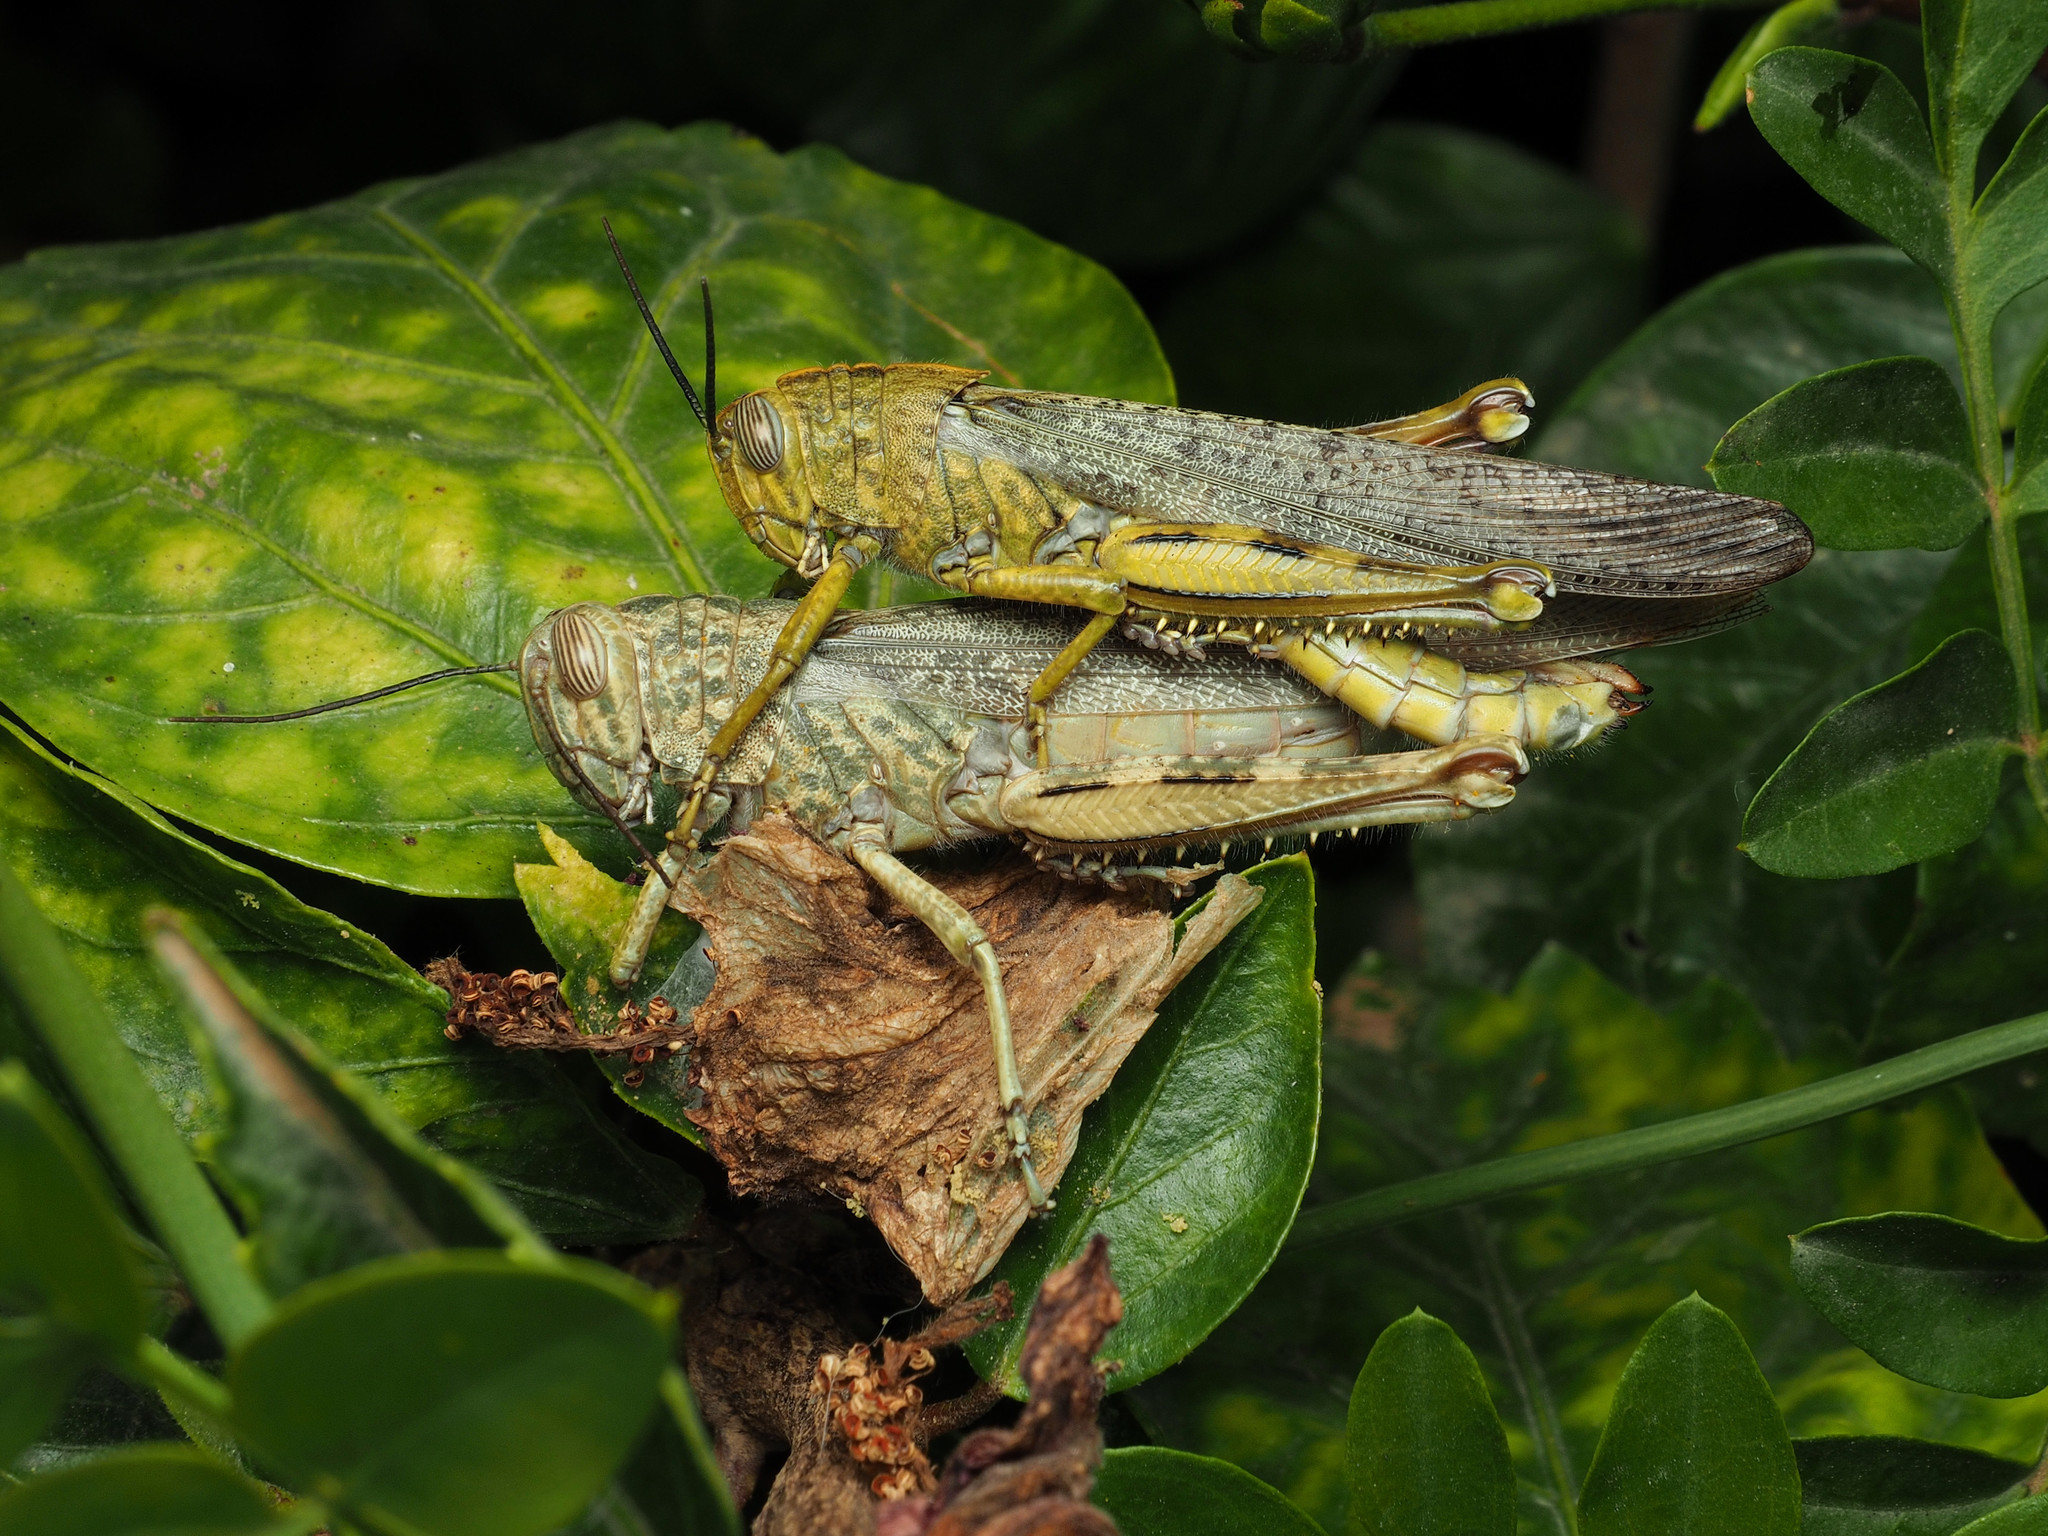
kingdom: Animalia
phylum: Arthropoda
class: Insecta
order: Orthoptera
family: Acrididae
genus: Anacridium
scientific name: Anacridium aegyptium
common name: Egyptian grasshopper
